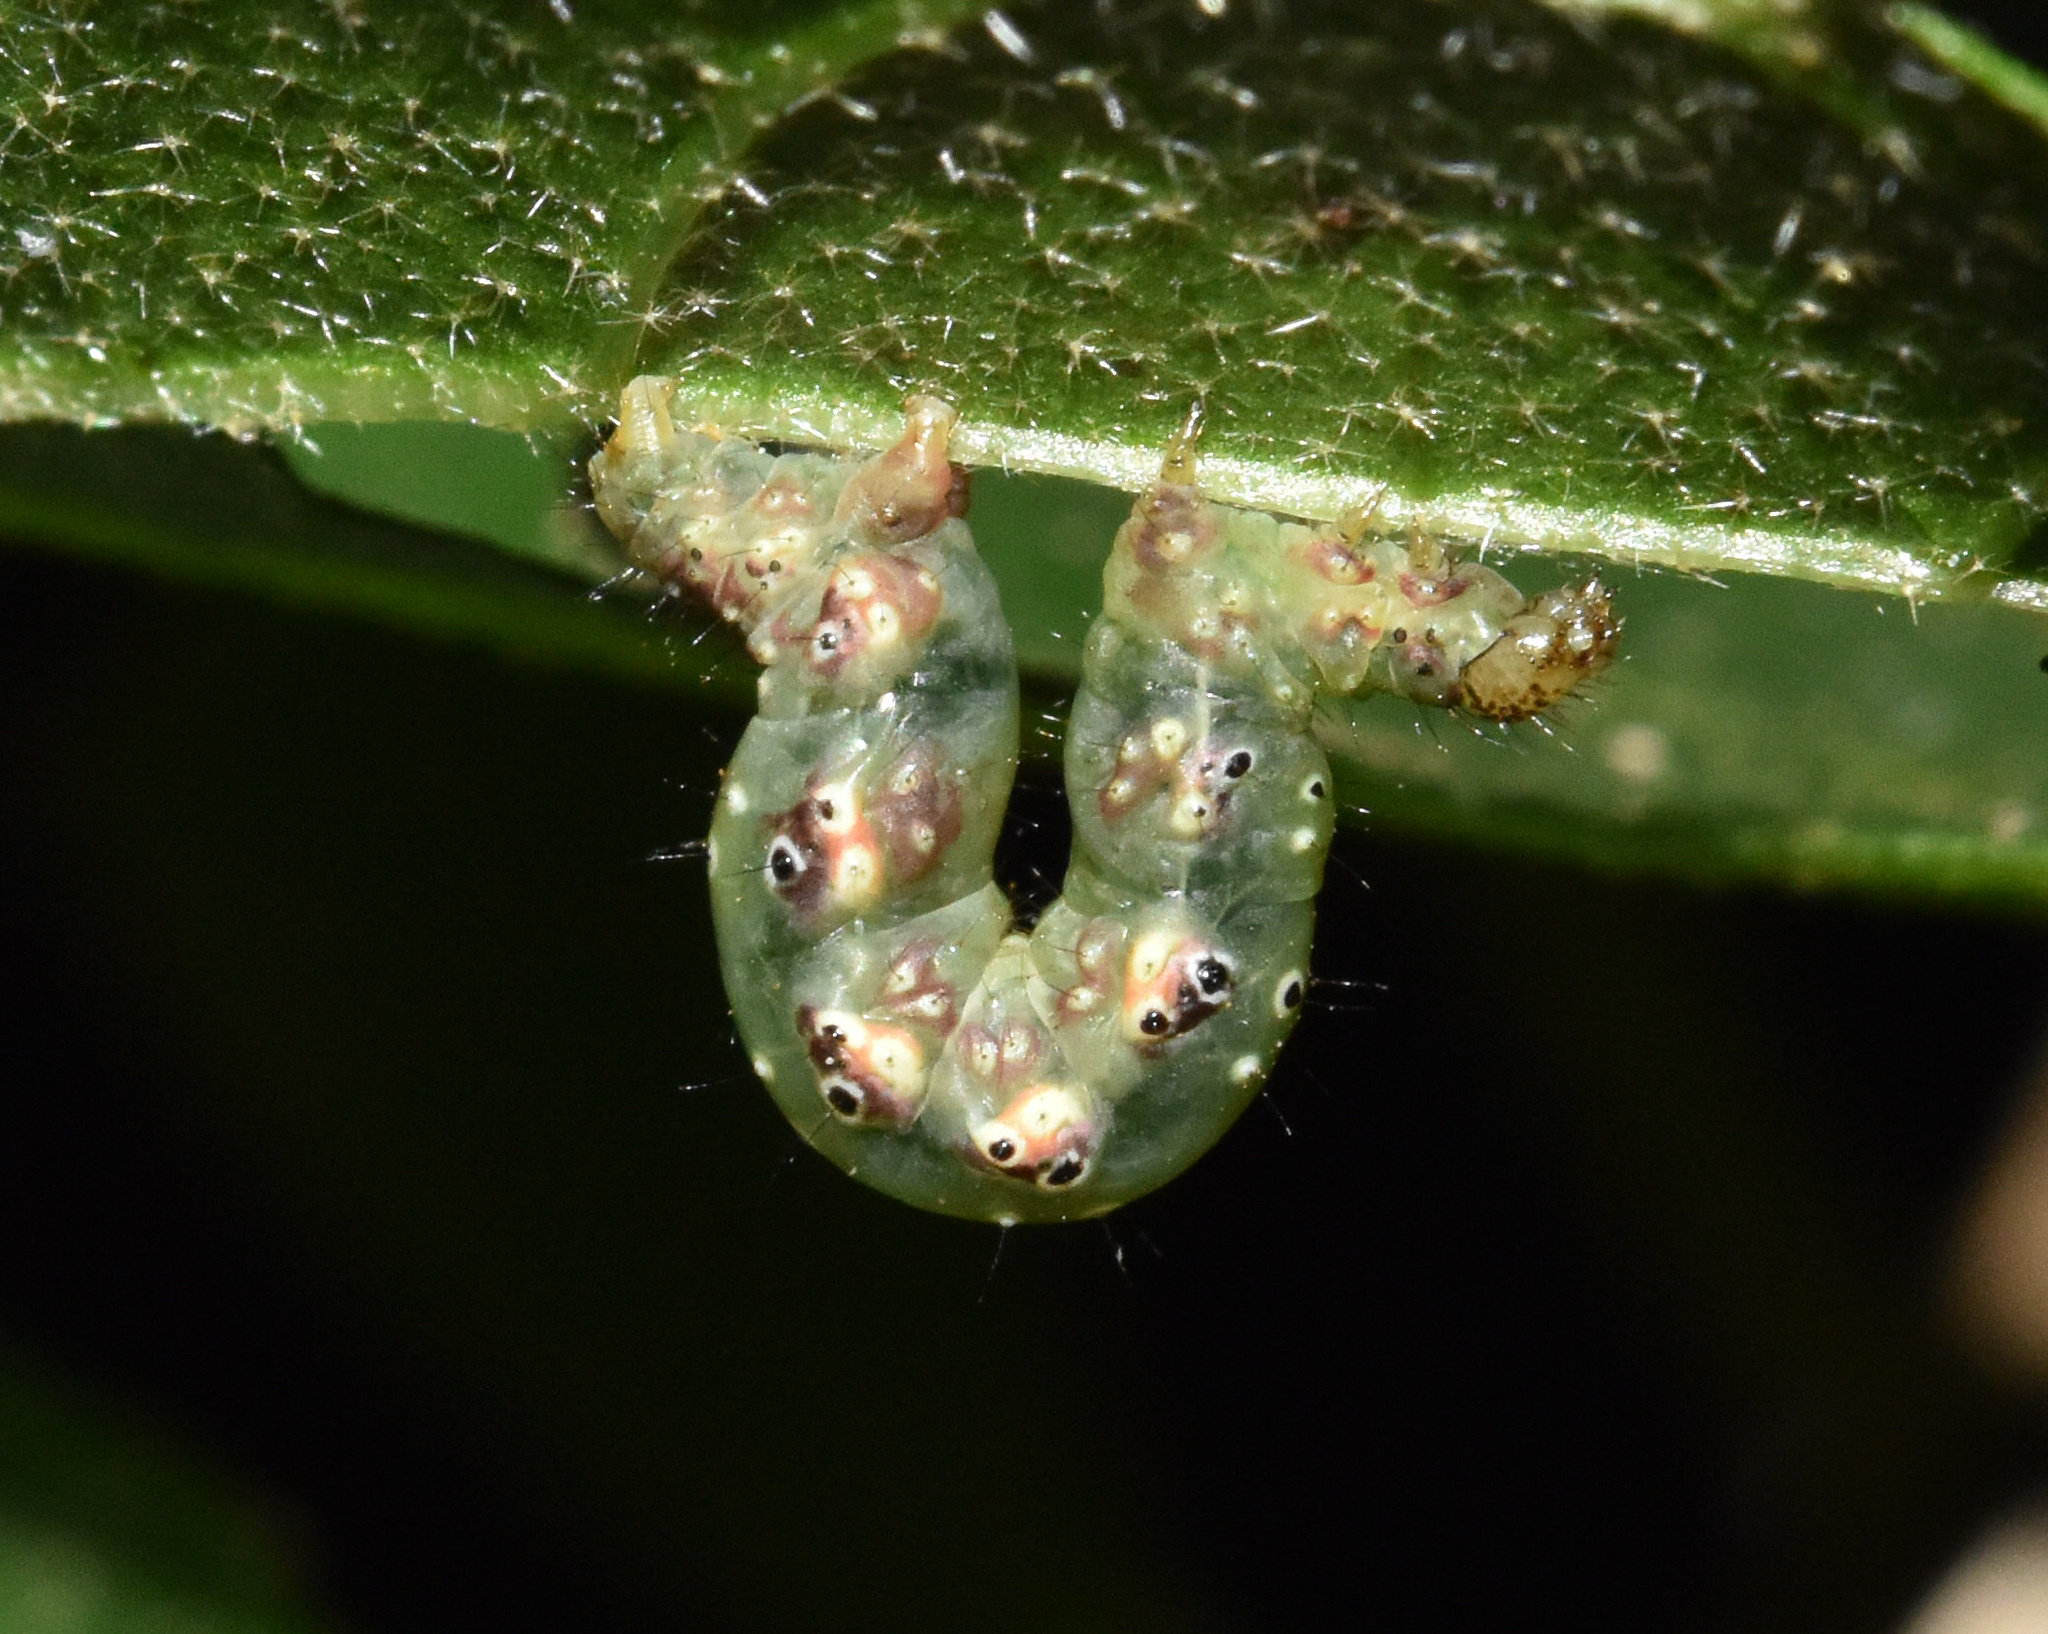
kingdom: Animalia
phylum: Arthropoda
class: Insecta
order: Lepidoptera
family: Geometridae
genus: Eois
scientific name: Eois grataria
